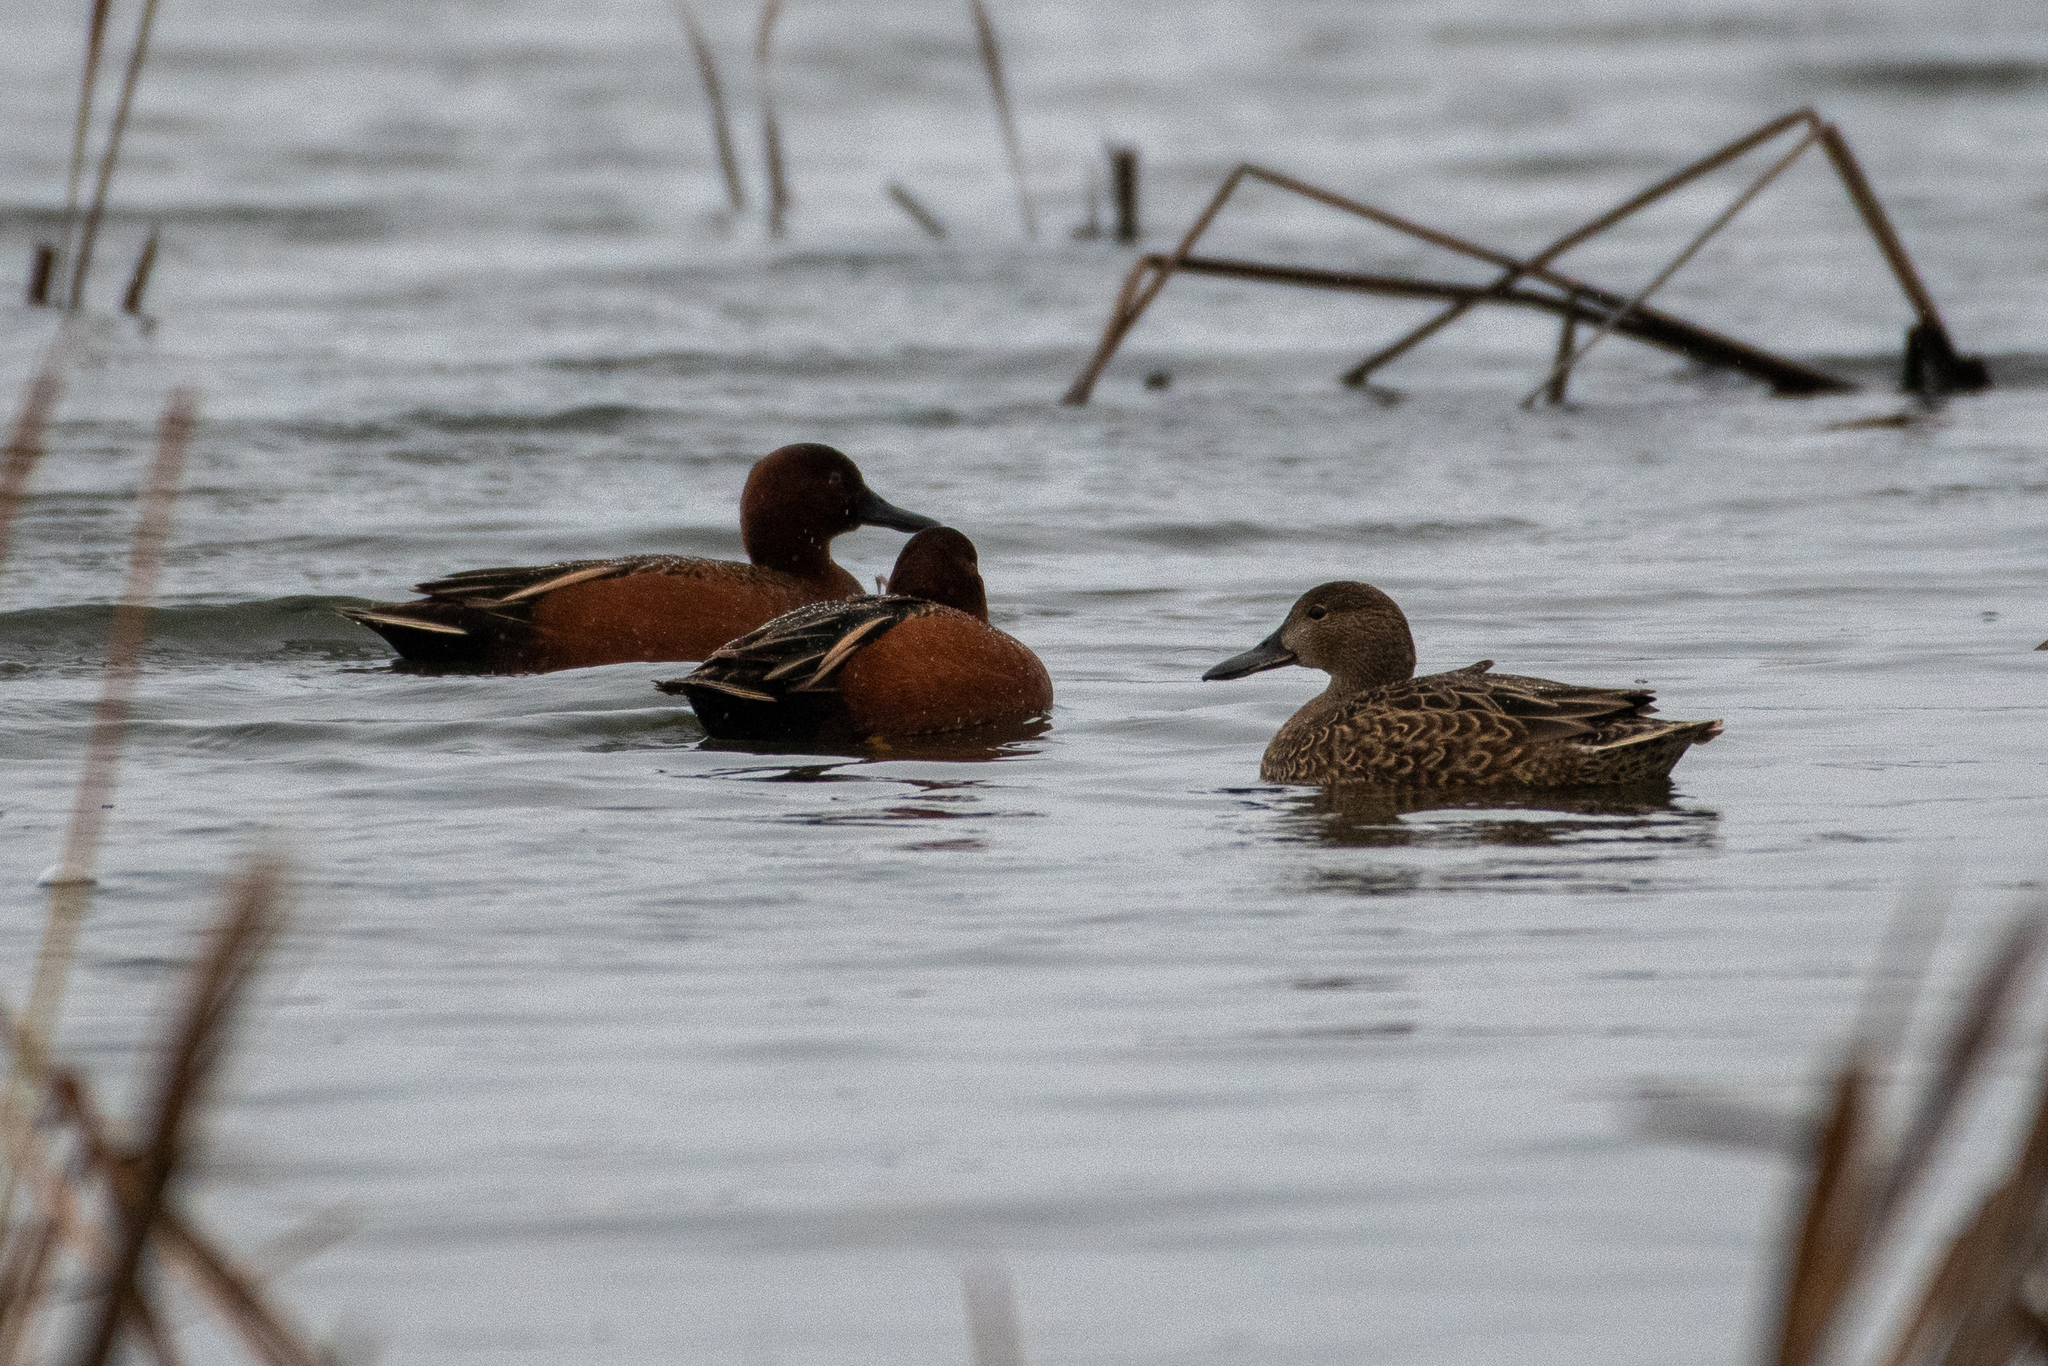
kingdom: Animalia
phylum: Chordata
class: Aves
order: Anseriformes
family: Anatidae
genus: Spatula
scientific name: Spatula cyanoptera
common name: Cinnamon teal
